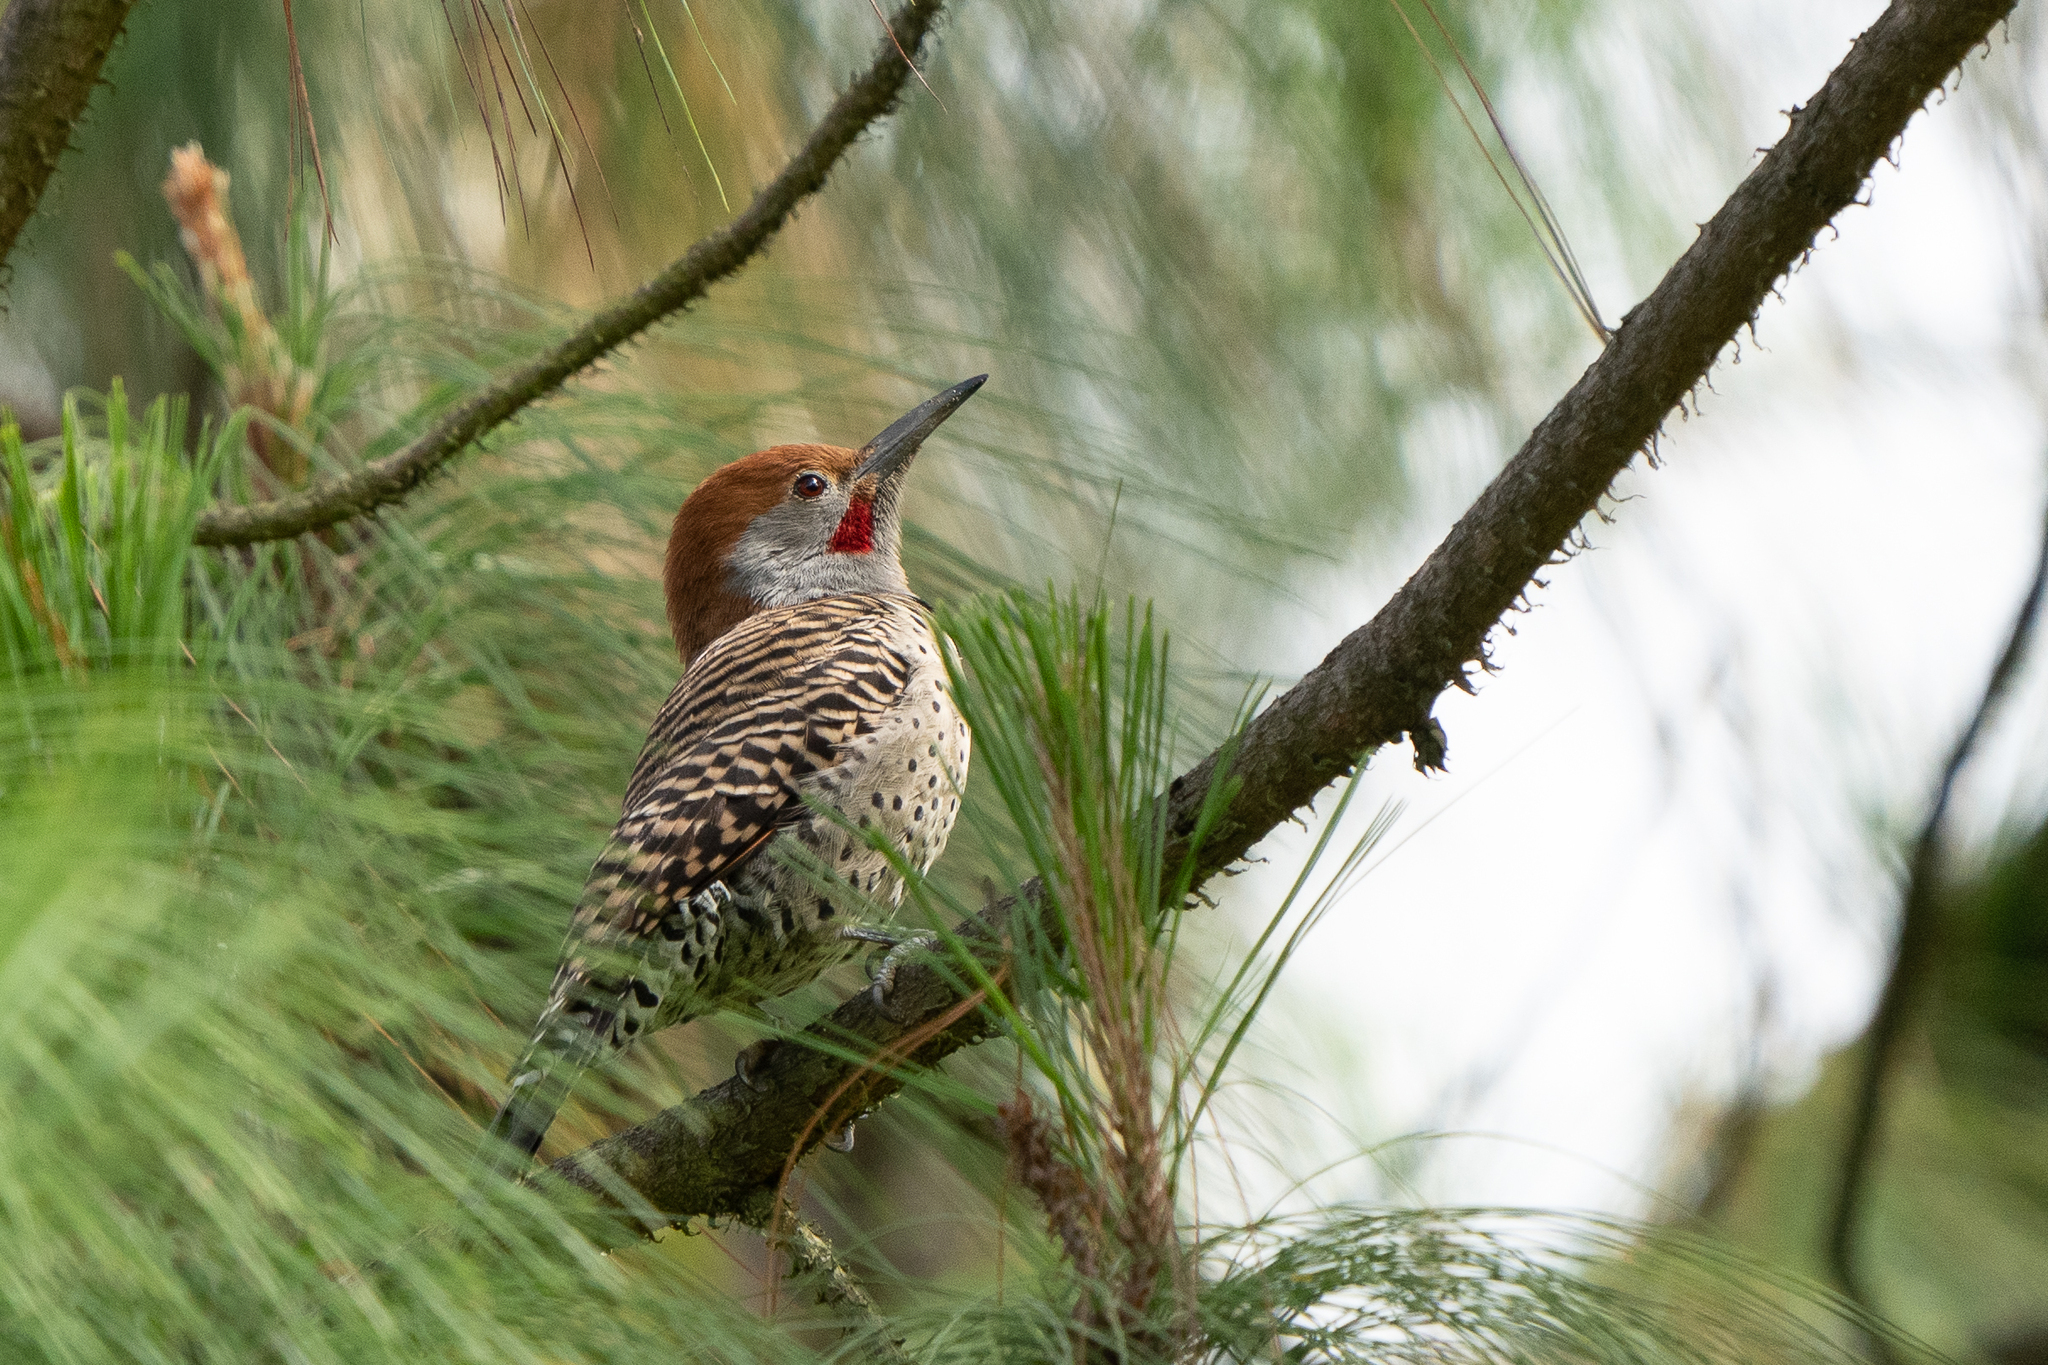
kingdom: Animalia
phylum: Chordata
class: Aves
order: Piciformes
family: Picidae
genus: Colaptes
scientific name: Colaptes auratus
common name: Northern flicker
